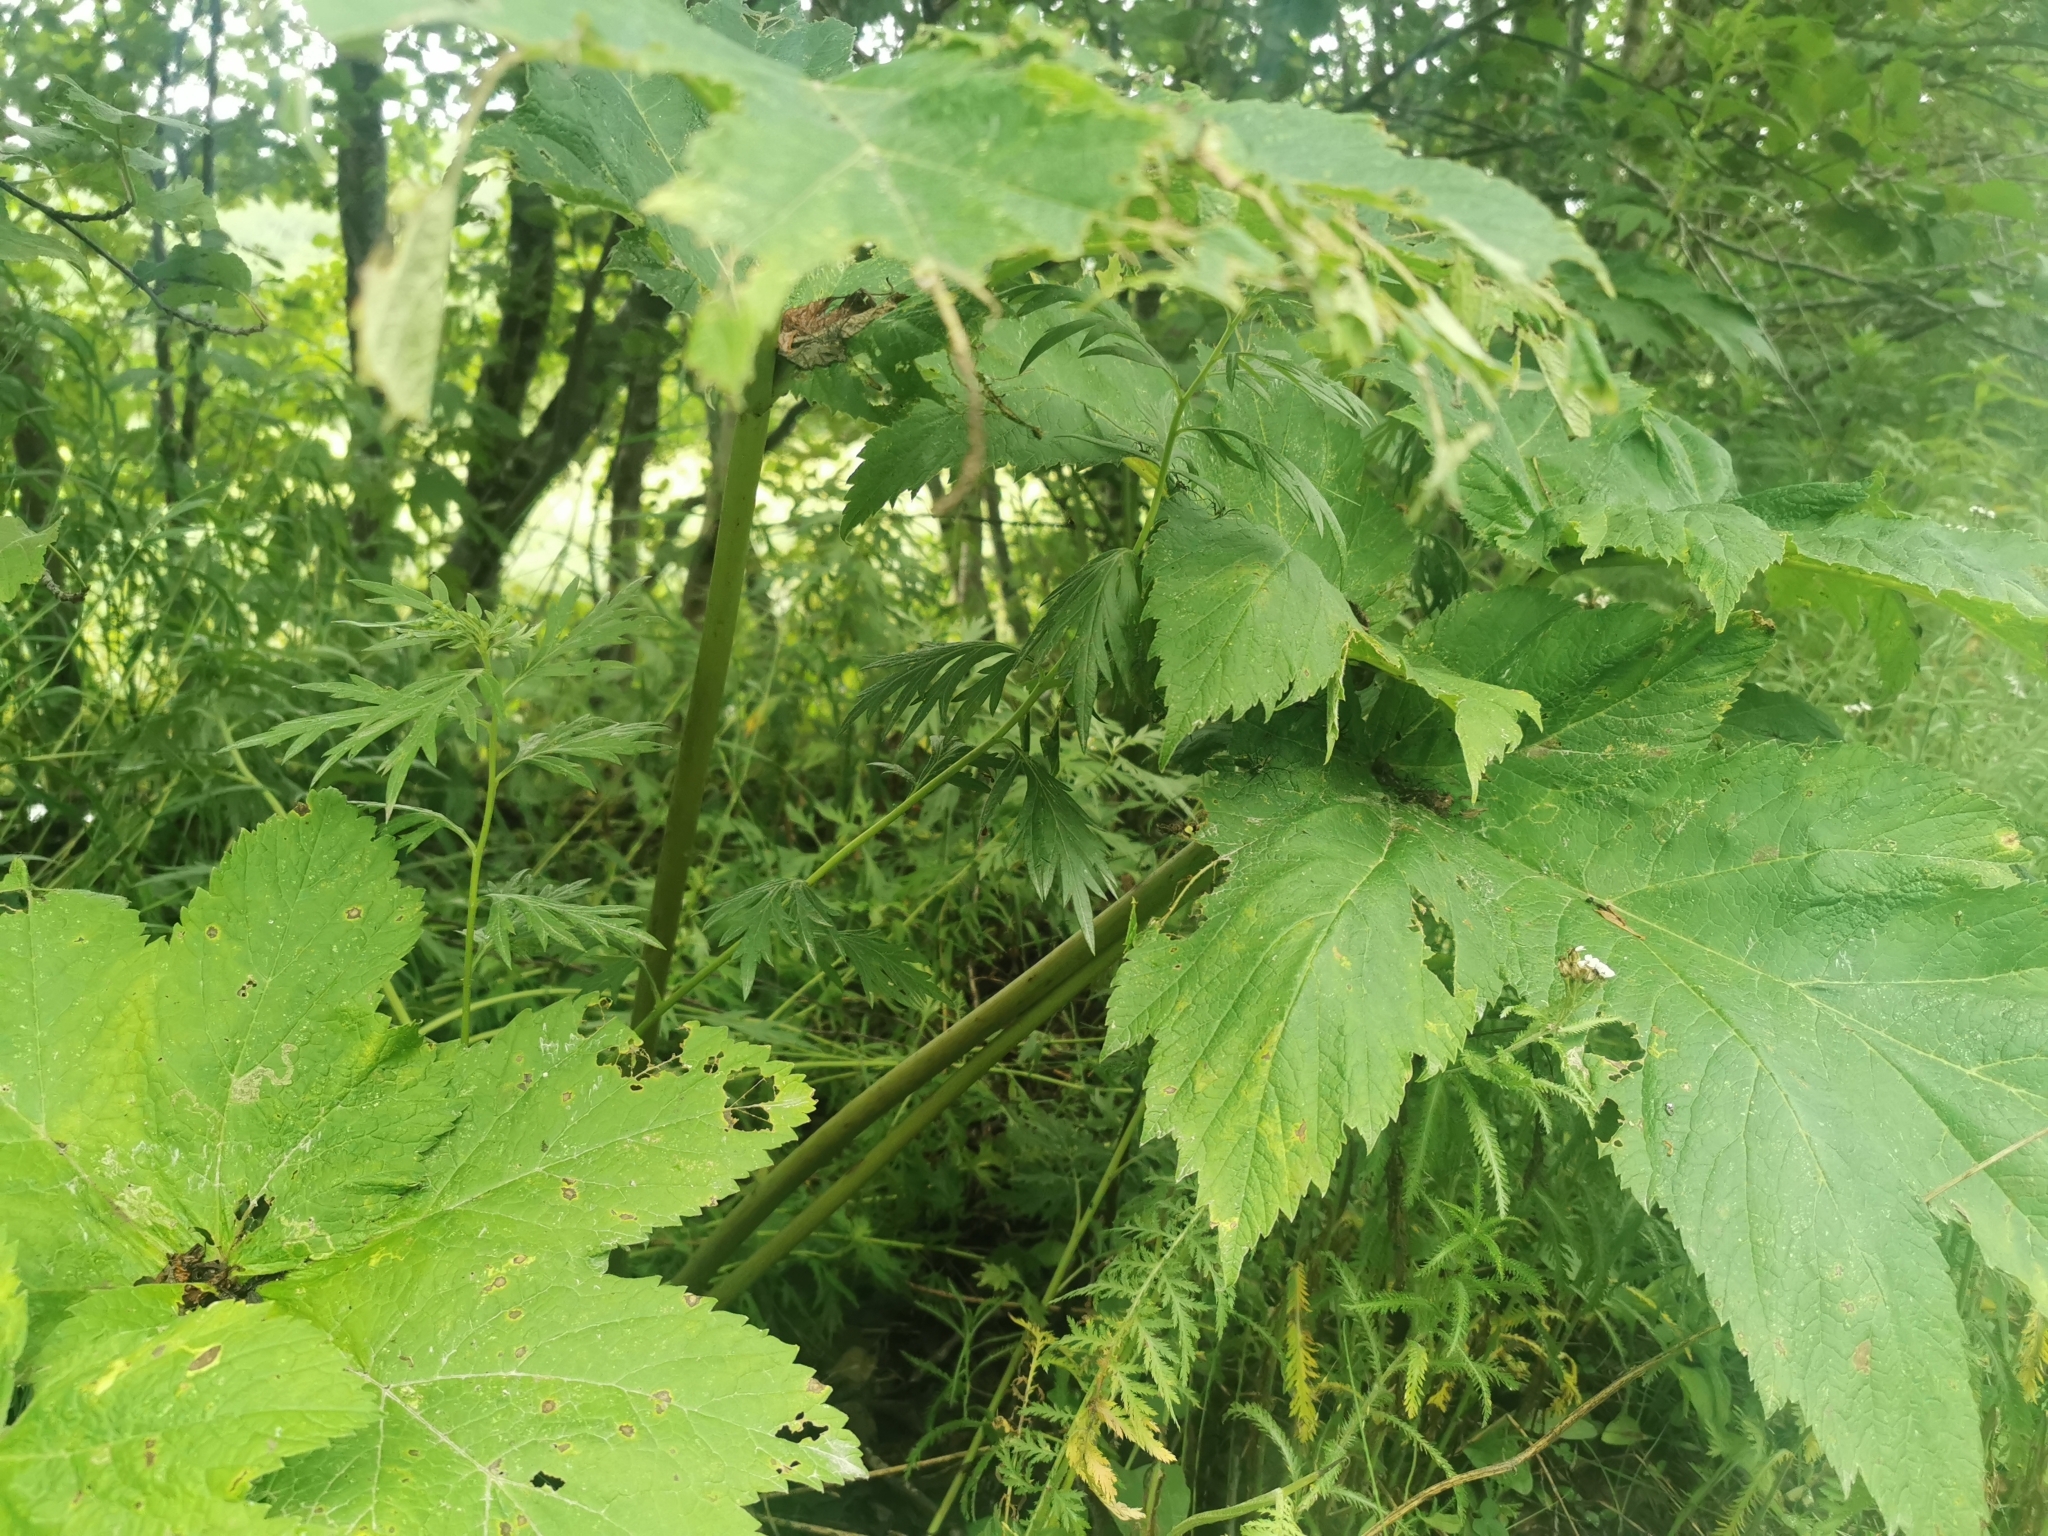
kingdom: Plantae
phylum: Tracheophyta
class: Magnoliopsida
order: Apiales
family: Apiaceae
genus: Heracleum
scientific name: Heracleum maximum
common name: American cow parsnip
